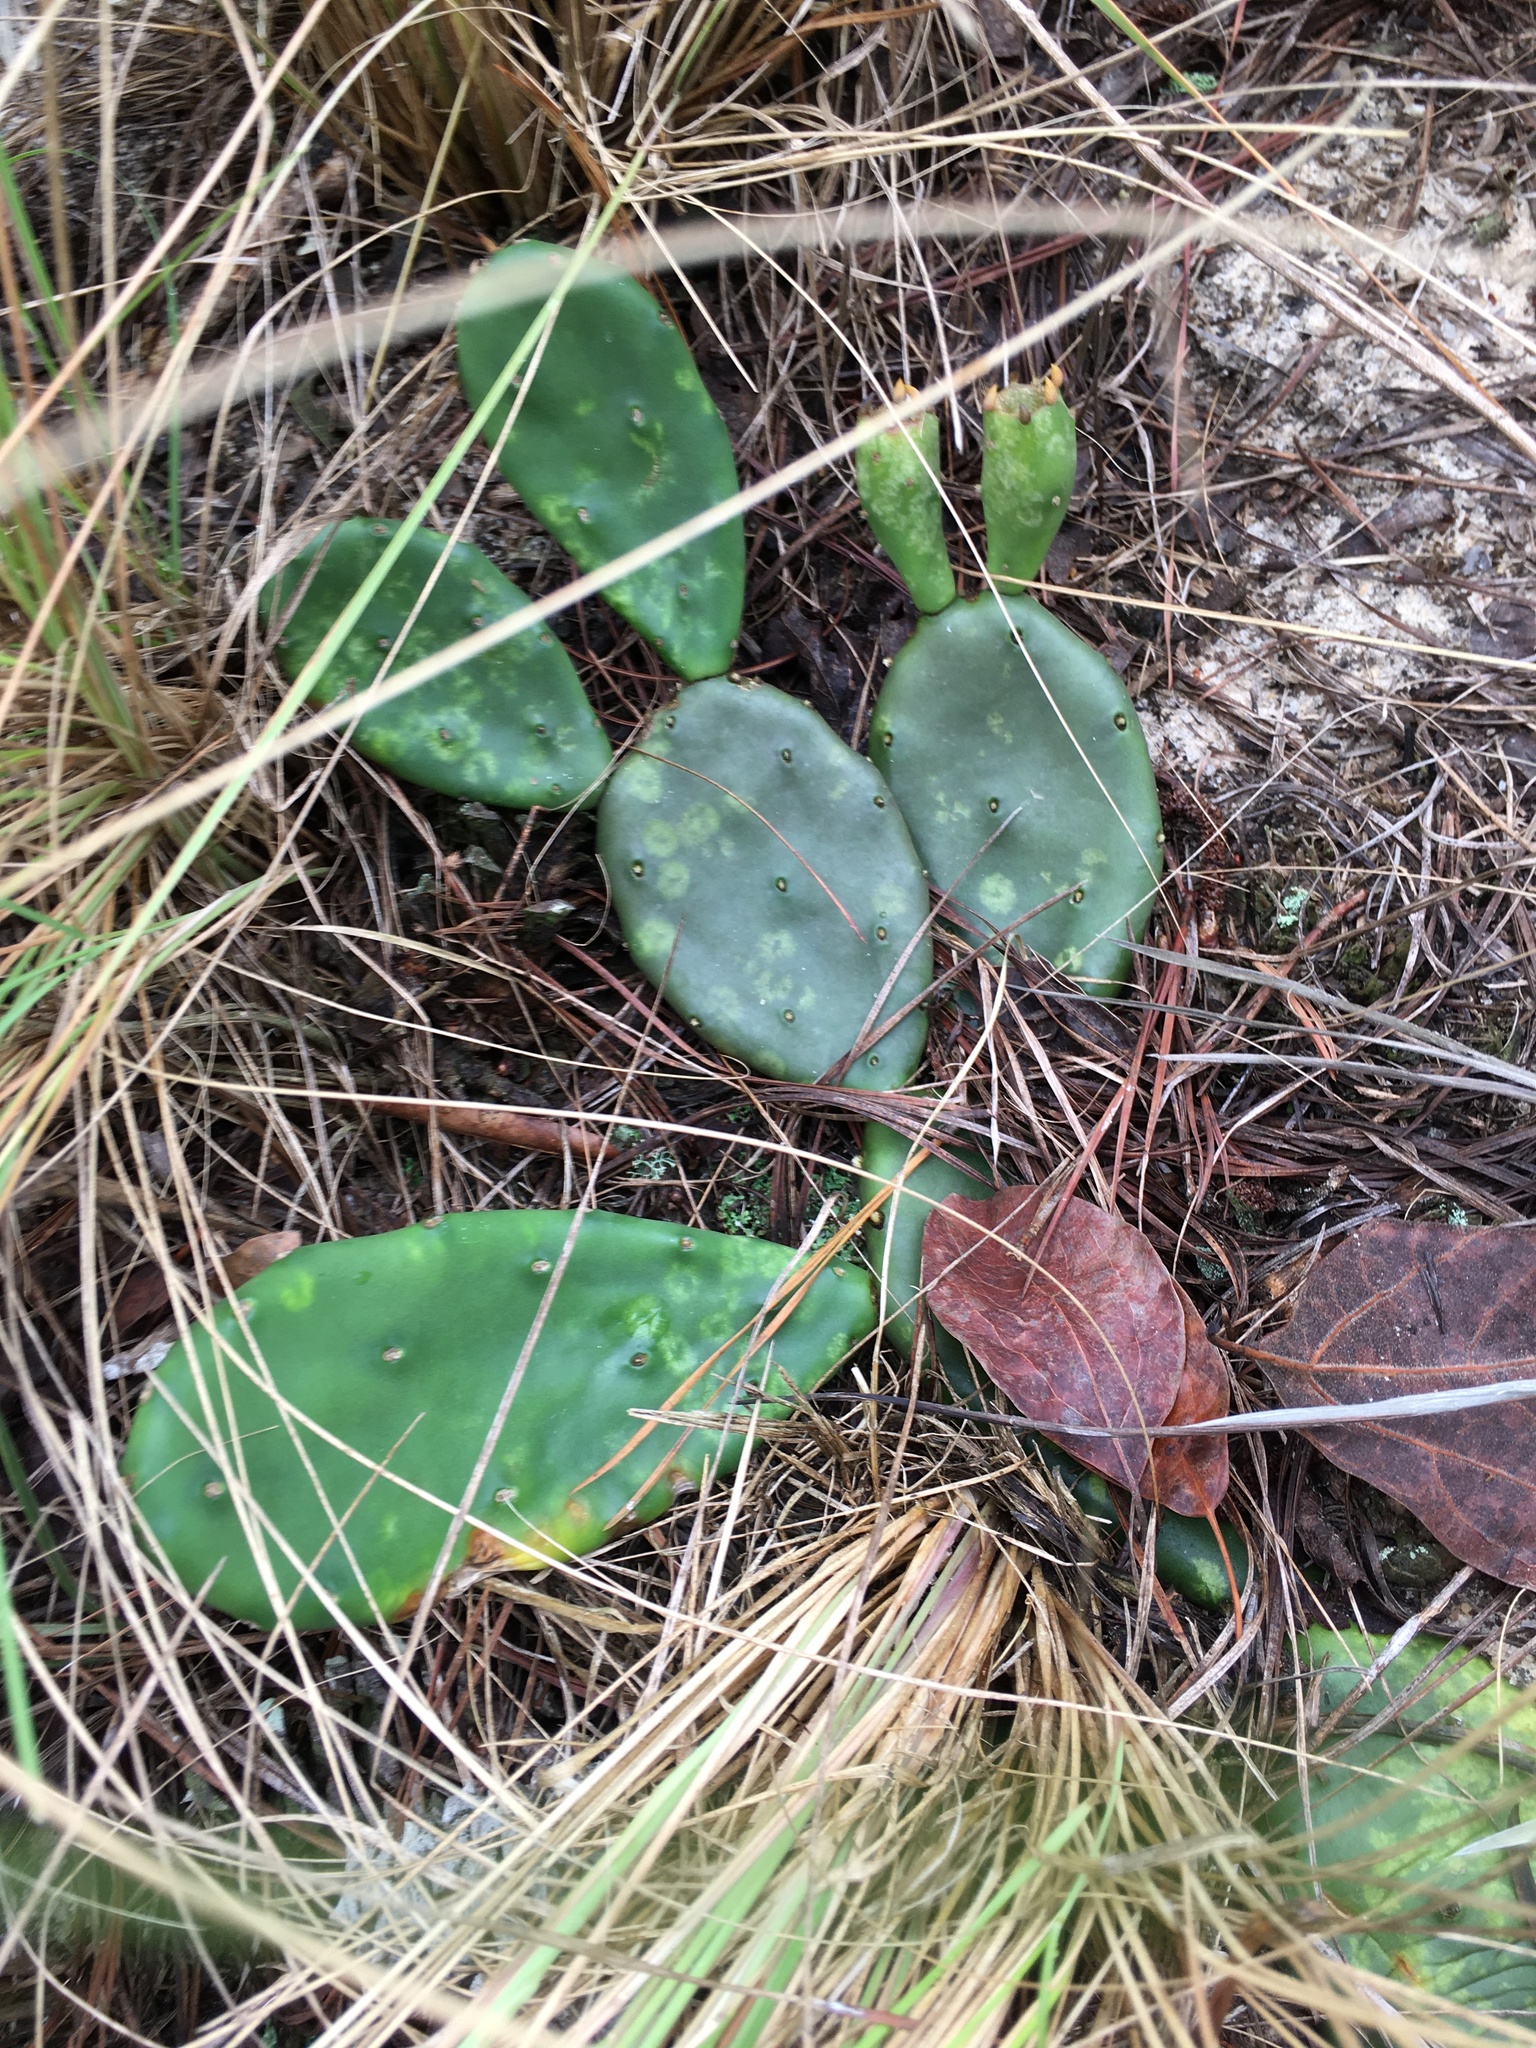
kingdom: Plantae
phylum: Tracheophyta
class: Magnoliopsida
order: Caryophyllales
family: Cactaceae
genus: Opuntia
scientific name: Opuntia mesacantha
